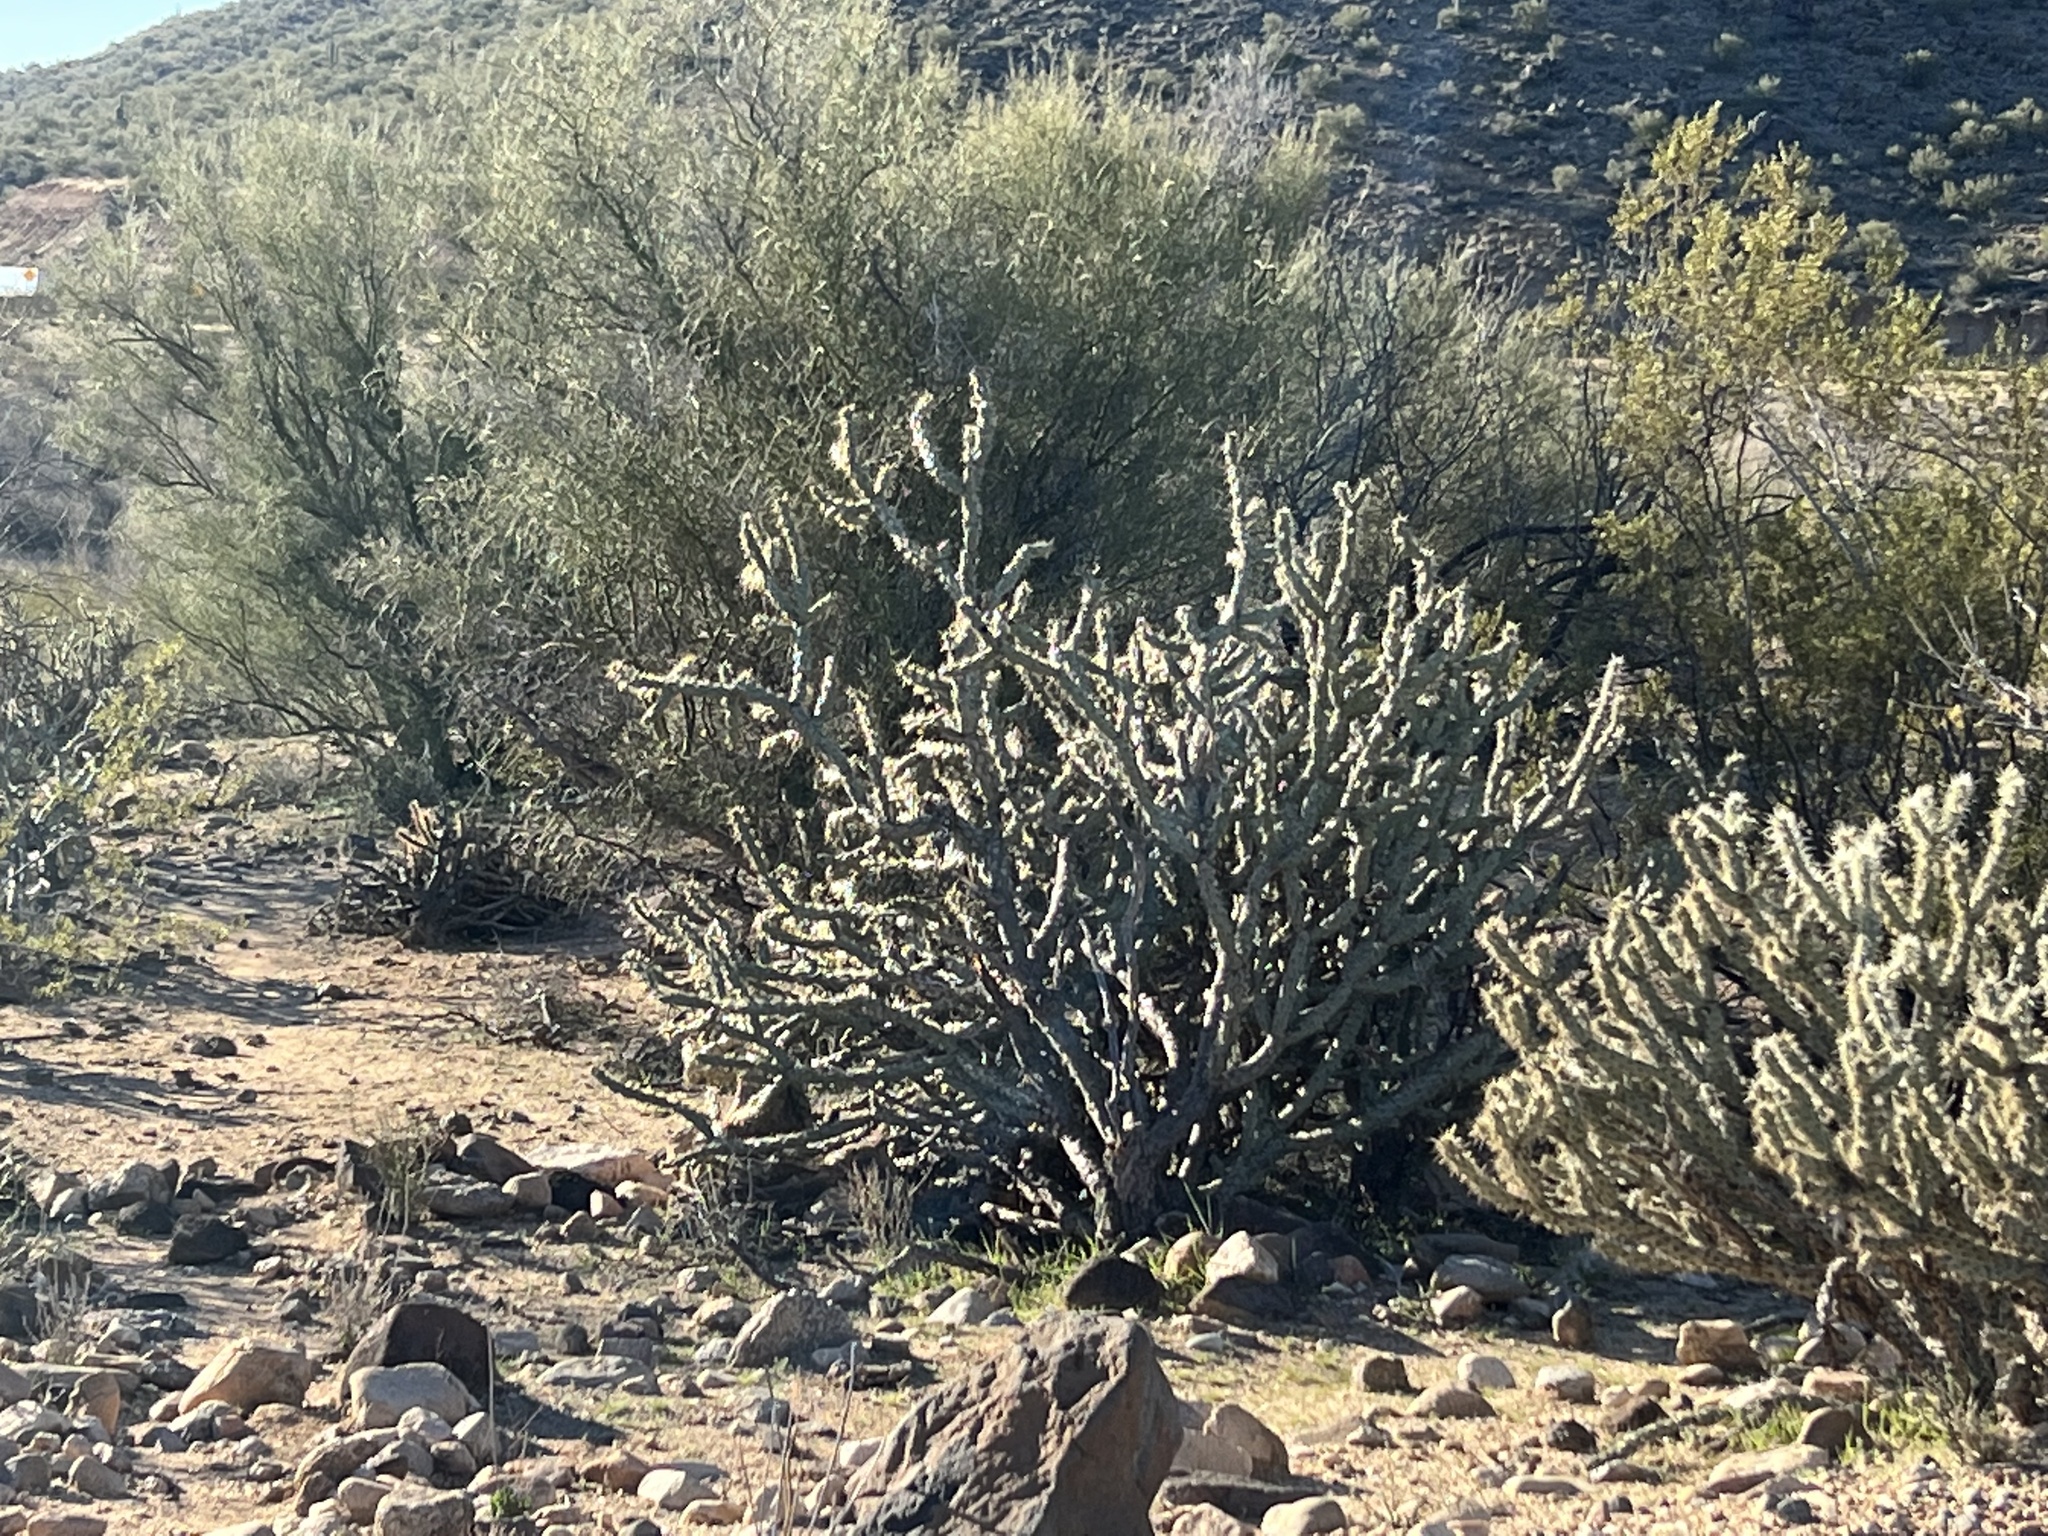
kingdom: Plantae
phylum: Tracheophyta
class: Magnoliopsida
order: Caryophyllales
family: Cactaceae
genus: Cylindropuntia
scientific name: Cylindropuntia acanthocarpa
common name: Buckhorn cholla
